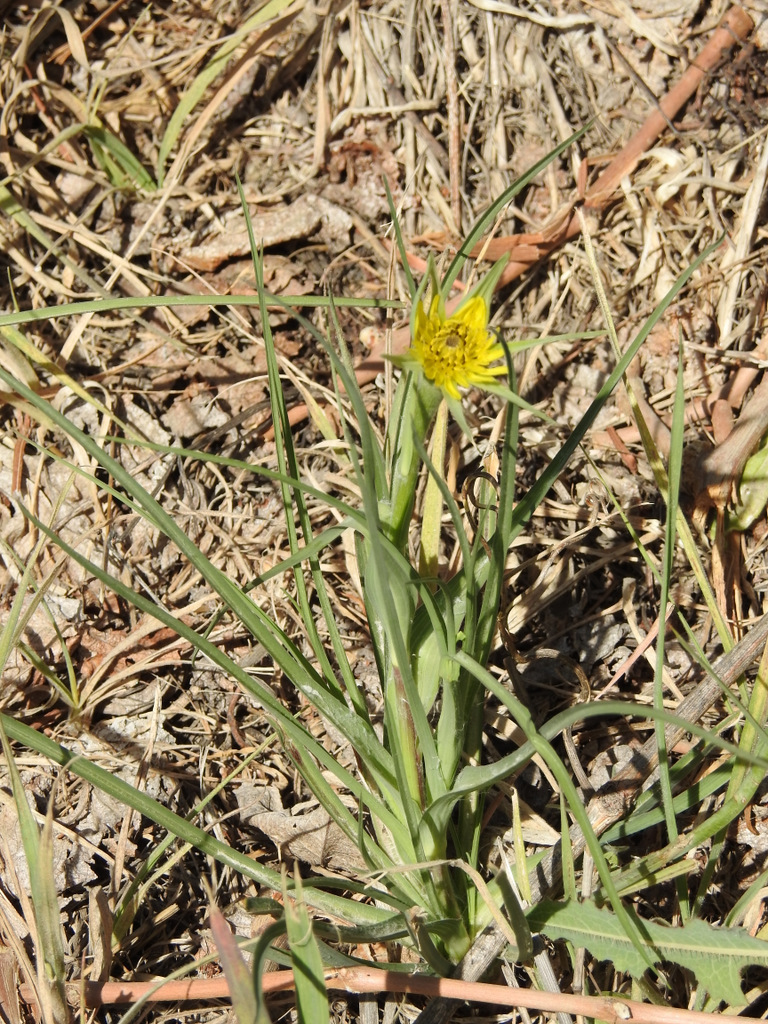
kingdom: Plantae
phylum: Tracheophyta
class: Magnoliopsida
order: Asterales
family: Asteraceae
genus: Tragopogon
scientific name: Tragopogon dubius
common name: Yellow salsify
